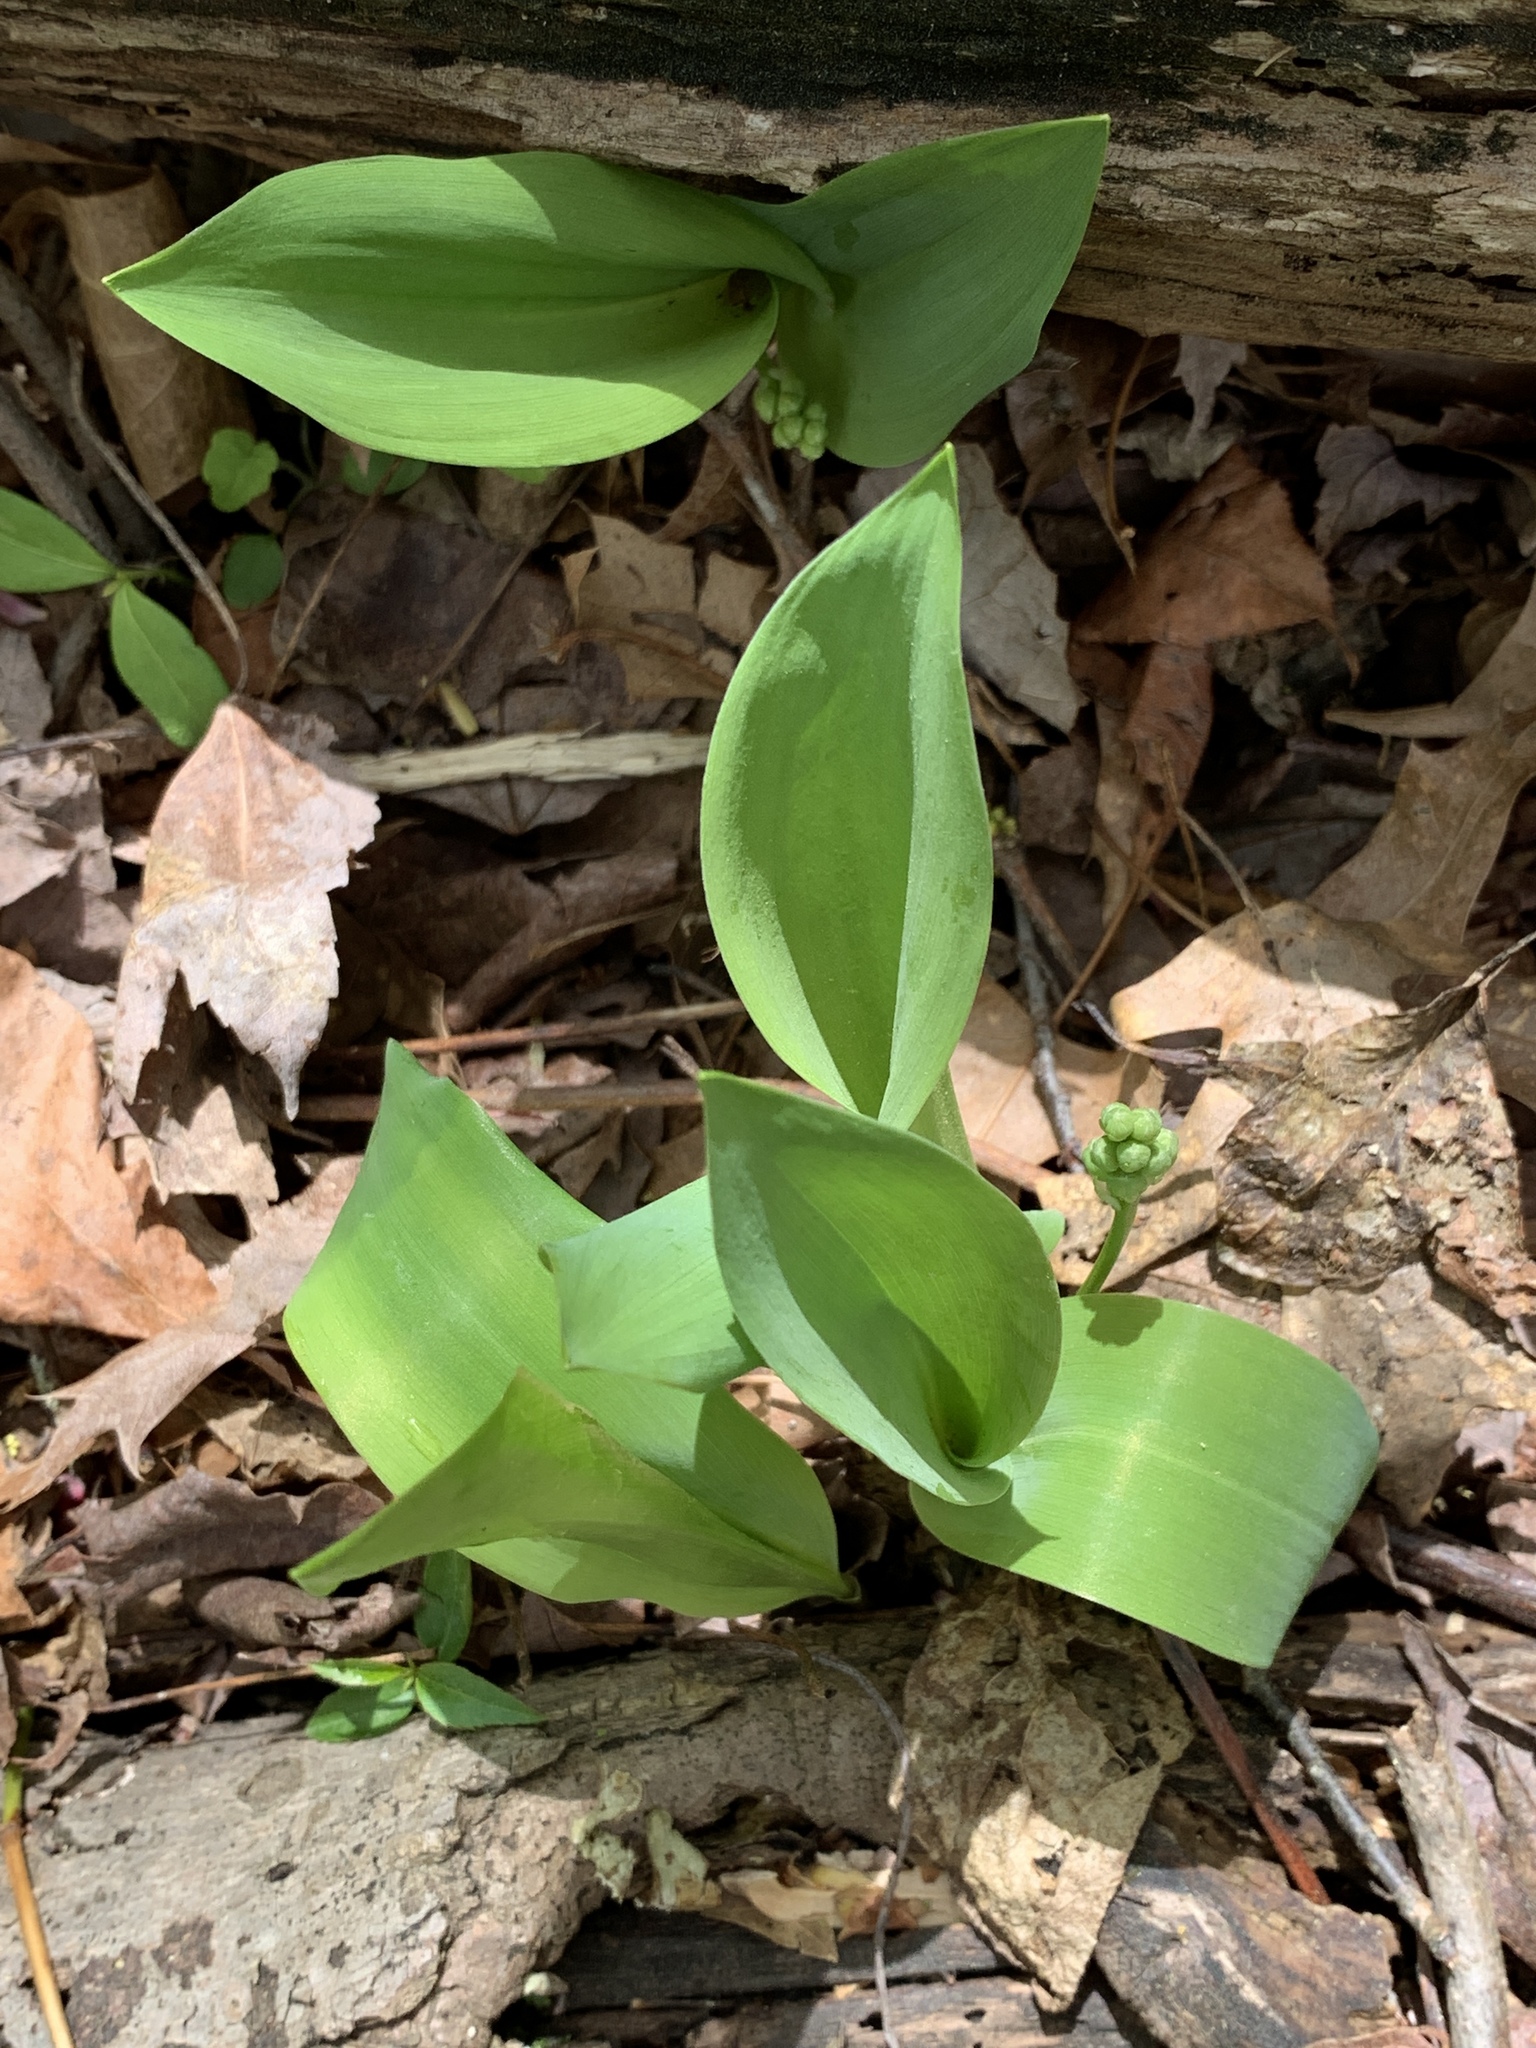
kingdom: Plantae
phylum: Tracheophyta
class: Liliopsida
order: Asparagales
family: Asparagaceae
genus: Convallaria
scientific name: Convallaria majalis
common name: Lily-of-the-valley
